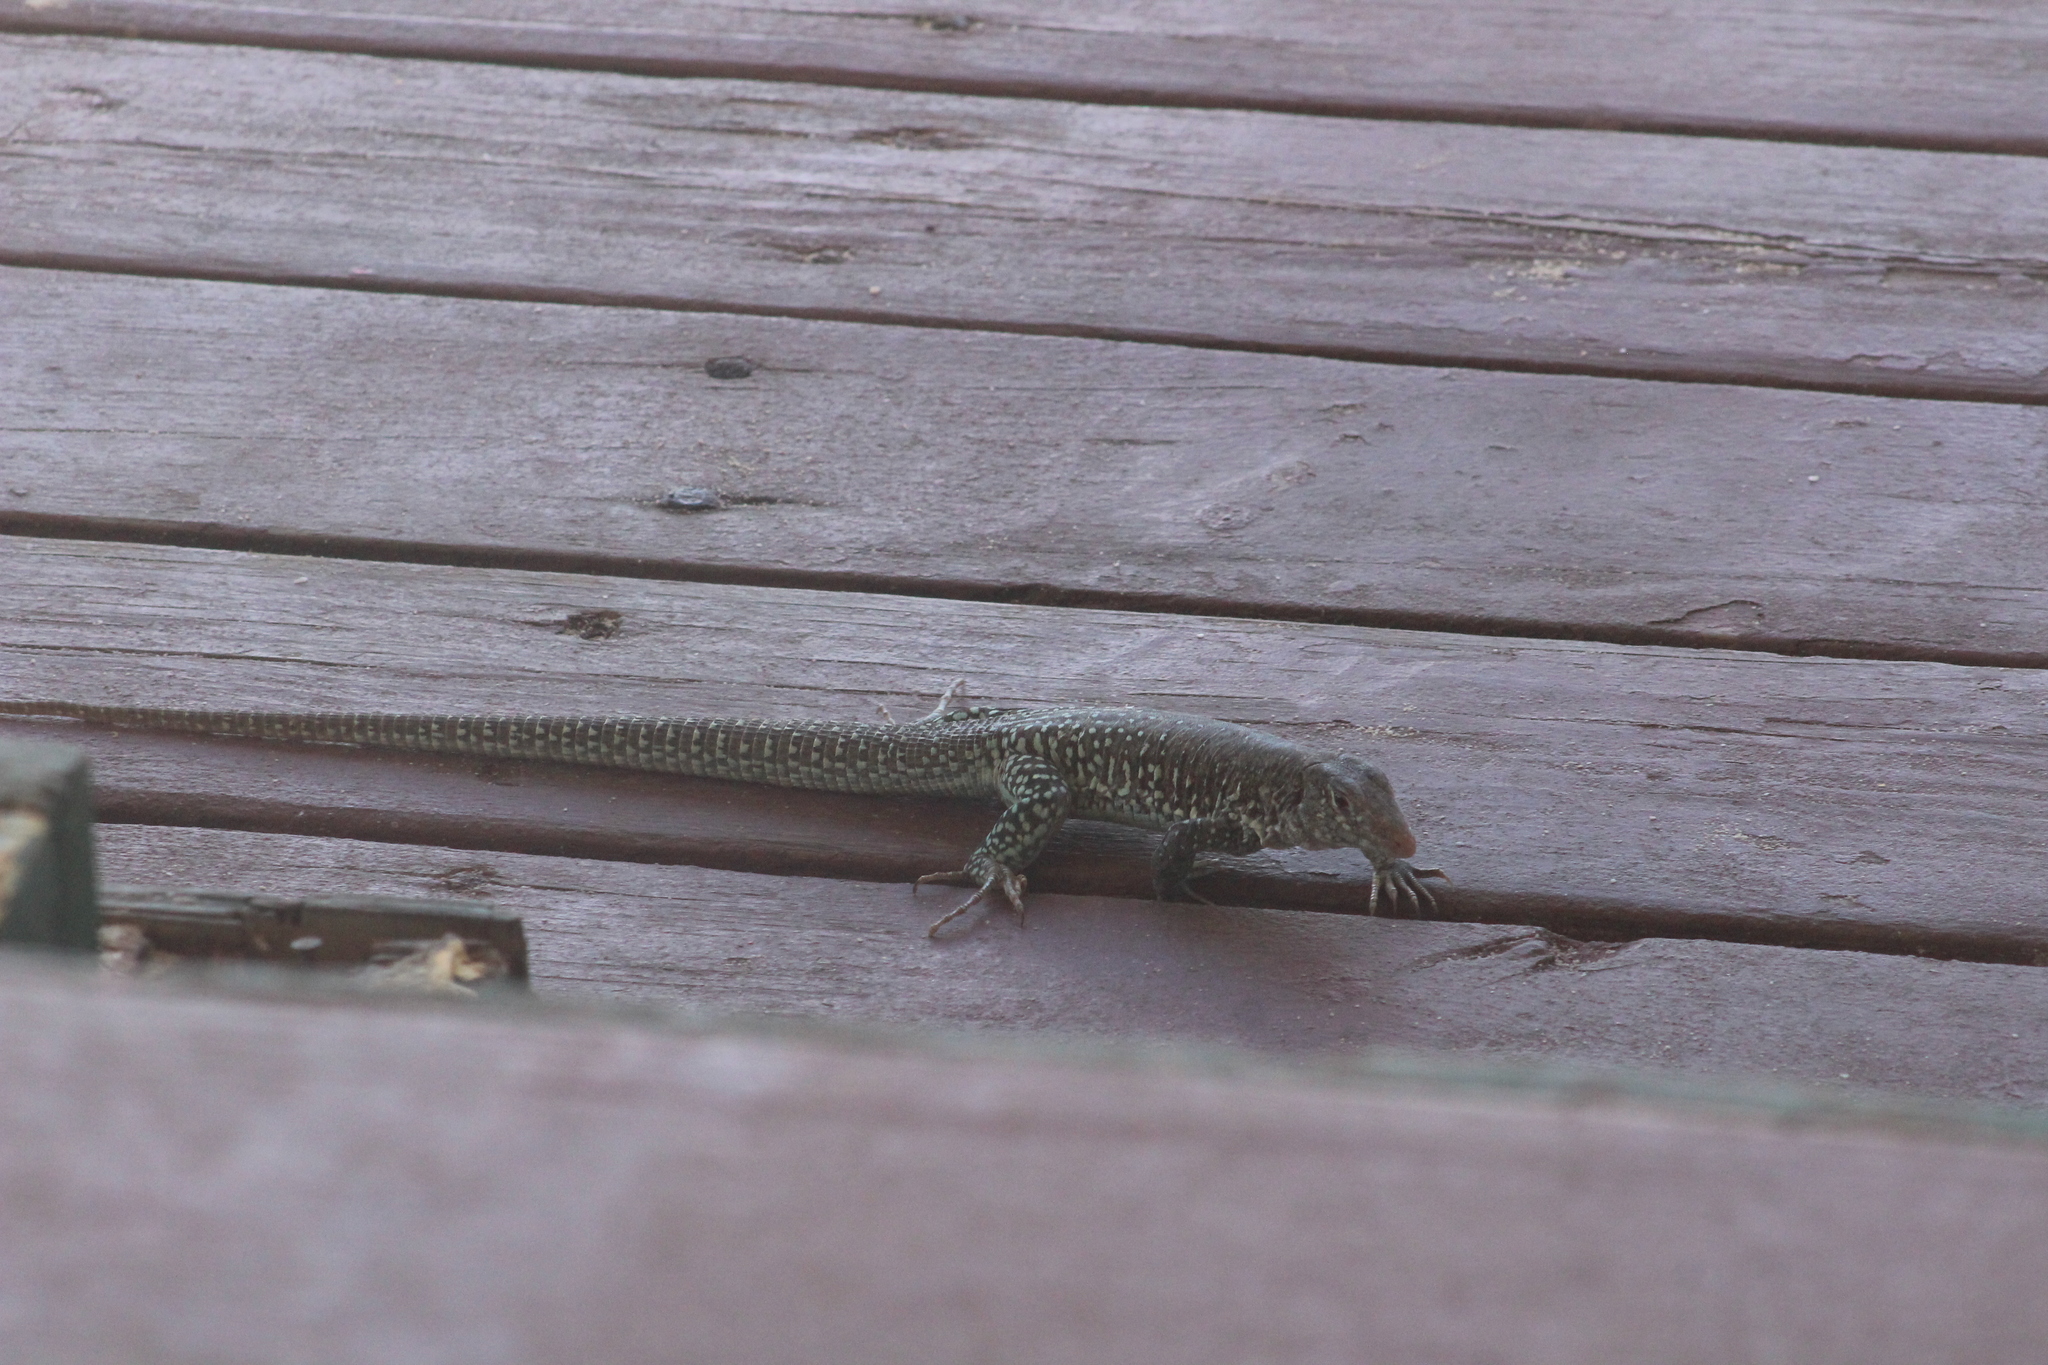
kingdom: Animalia
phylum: Chordata
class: Squamata
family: Teiidae
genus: Pholidoscelis
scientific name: Pholidoscelis plei
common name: Anguilla bank ameiva
